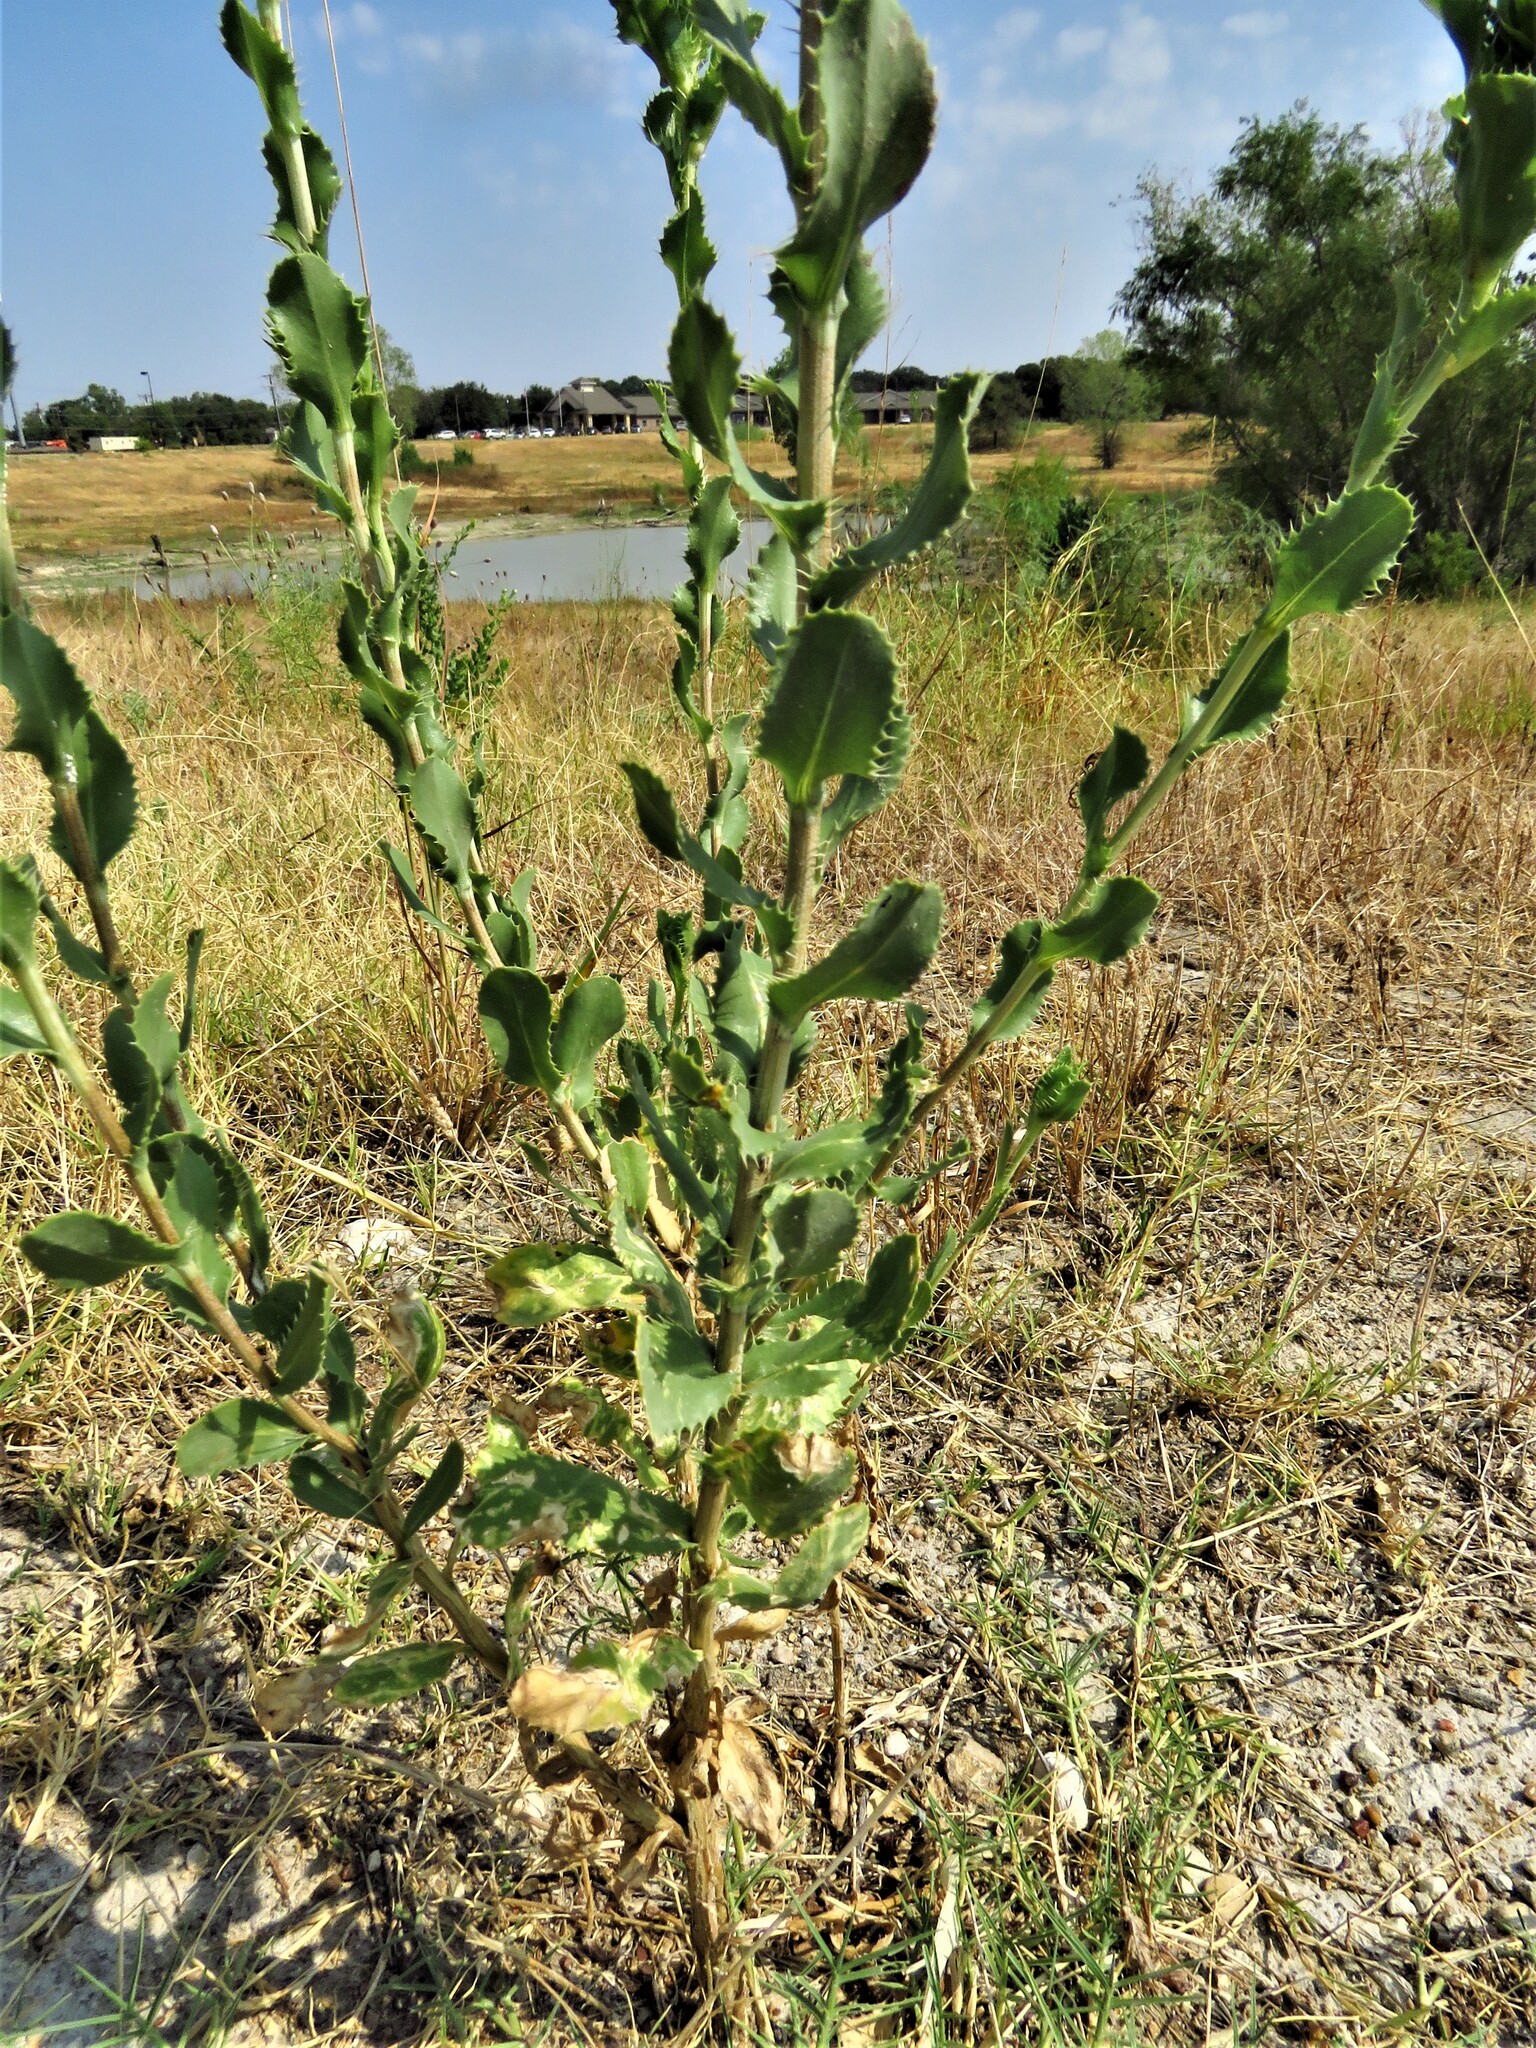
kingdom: Plantae
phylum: Tracheophyta
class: Magnoliopsida
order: Asterales
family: Asteraceae
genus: Grindelia
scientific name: Grindelia ciliata
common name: Goldenweed
